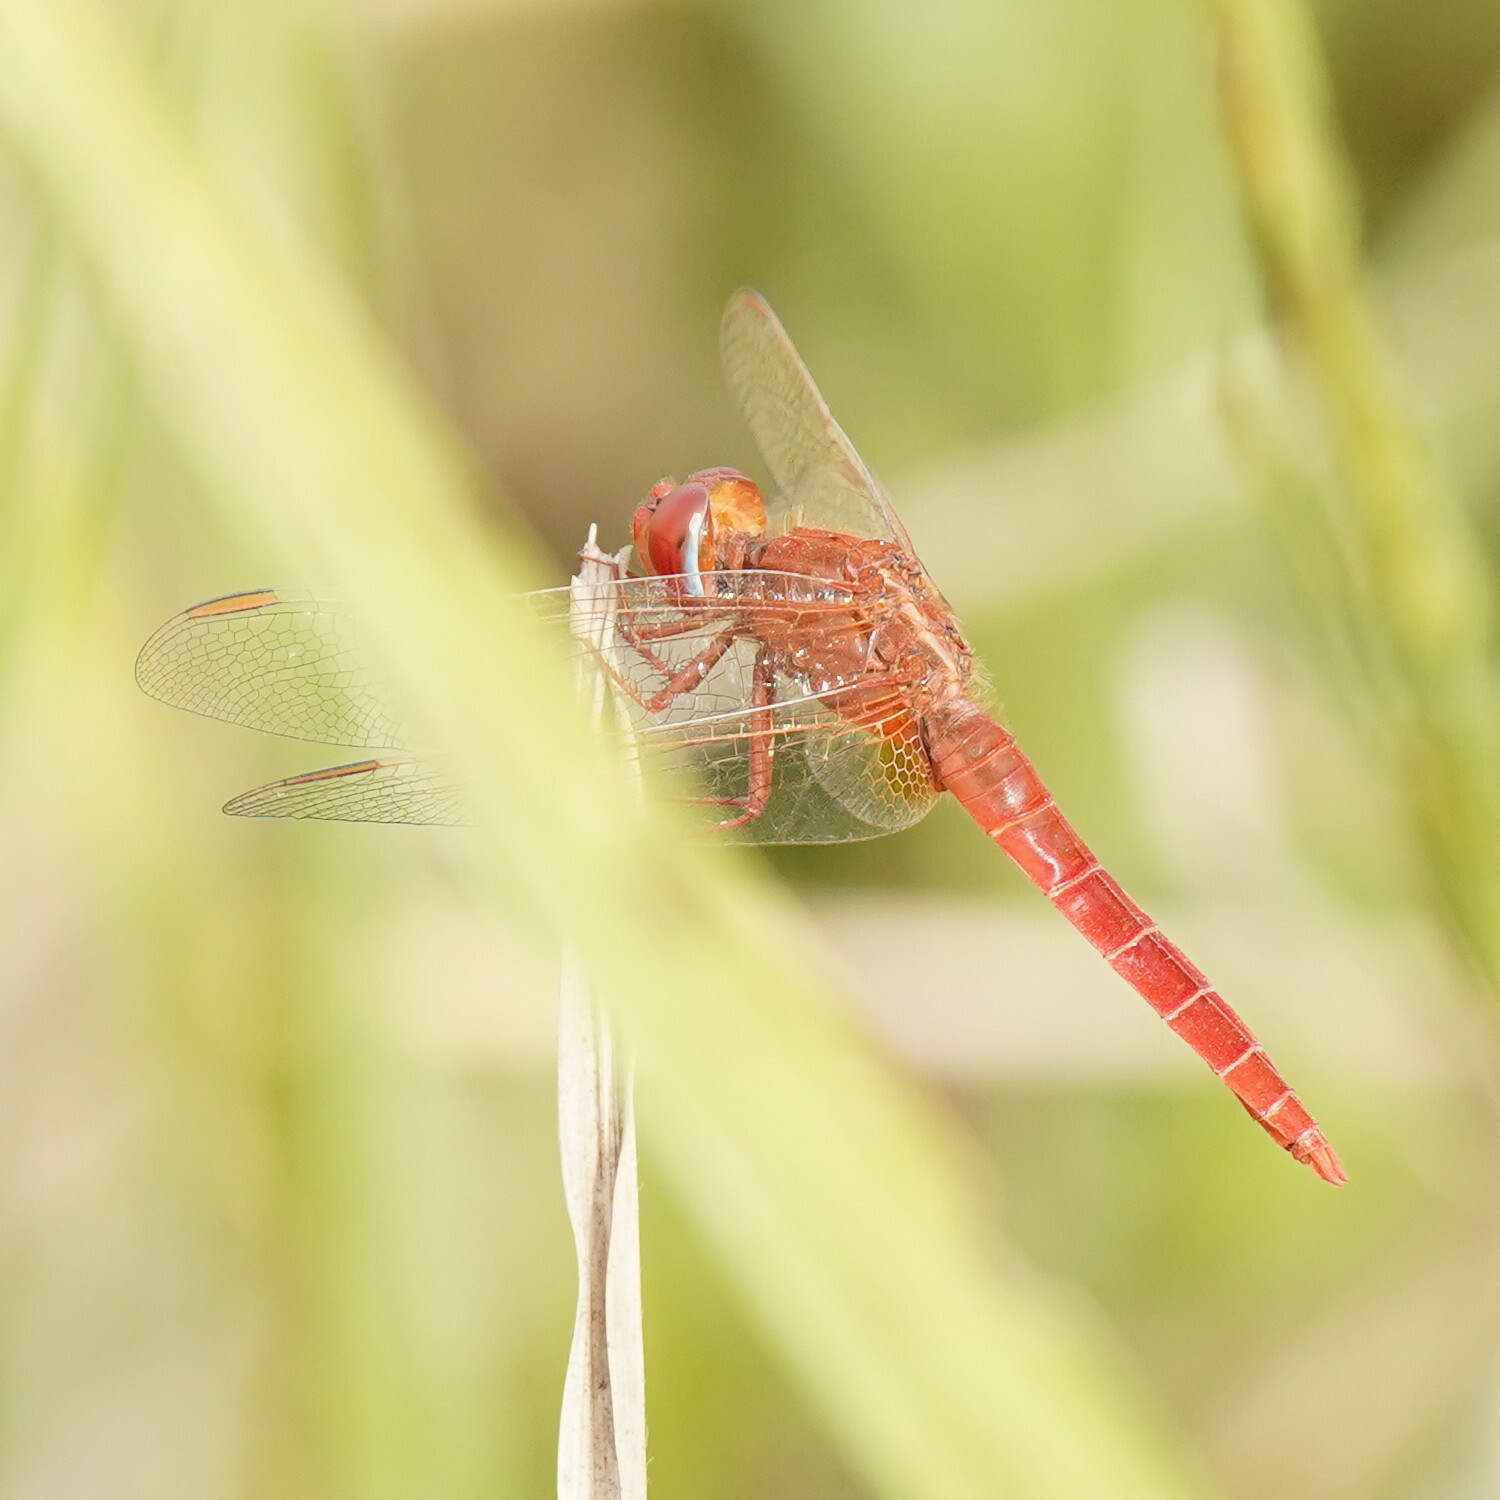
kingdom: Animalia
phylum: Arthropoda
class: Insecta
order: Odonata
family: Libellulidae
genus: Crocothemis
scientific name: Crocothemis erythraea
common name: Scarlet dragonfly
